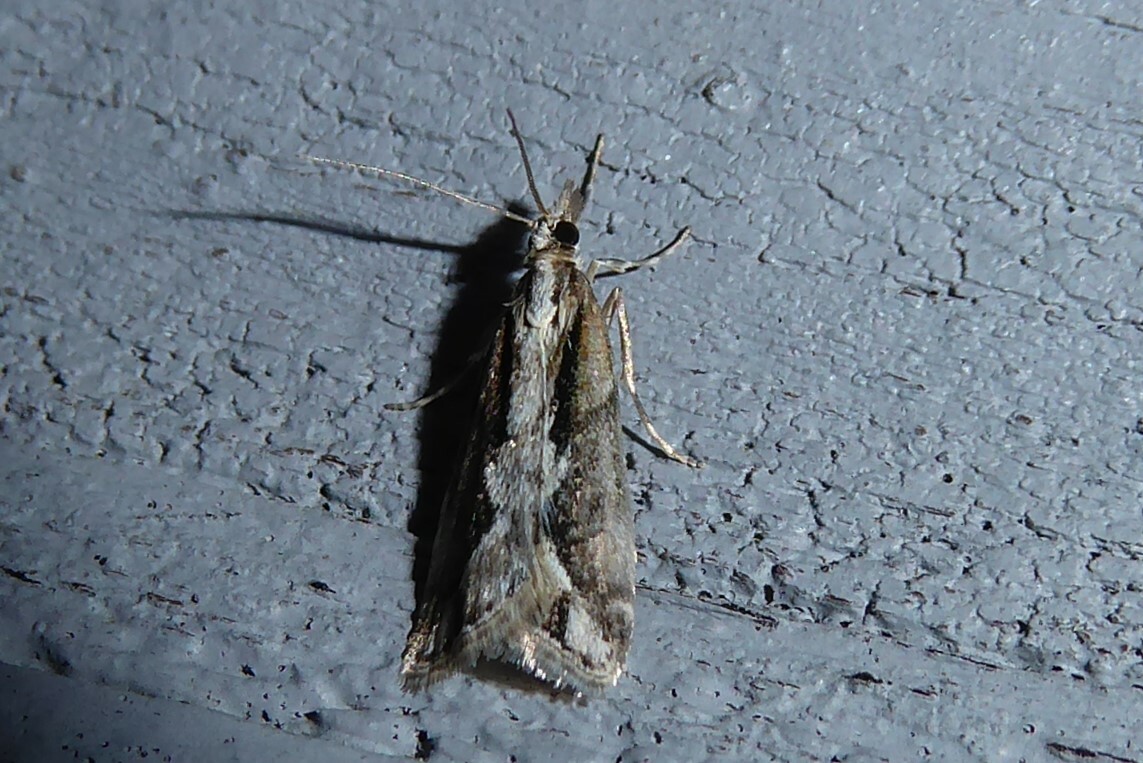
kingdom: Animalia
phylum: Arthropoda
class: Insecta
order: Lepidoptera
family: Crambidae
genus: Eudonia
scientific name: Eudonia steropaea
